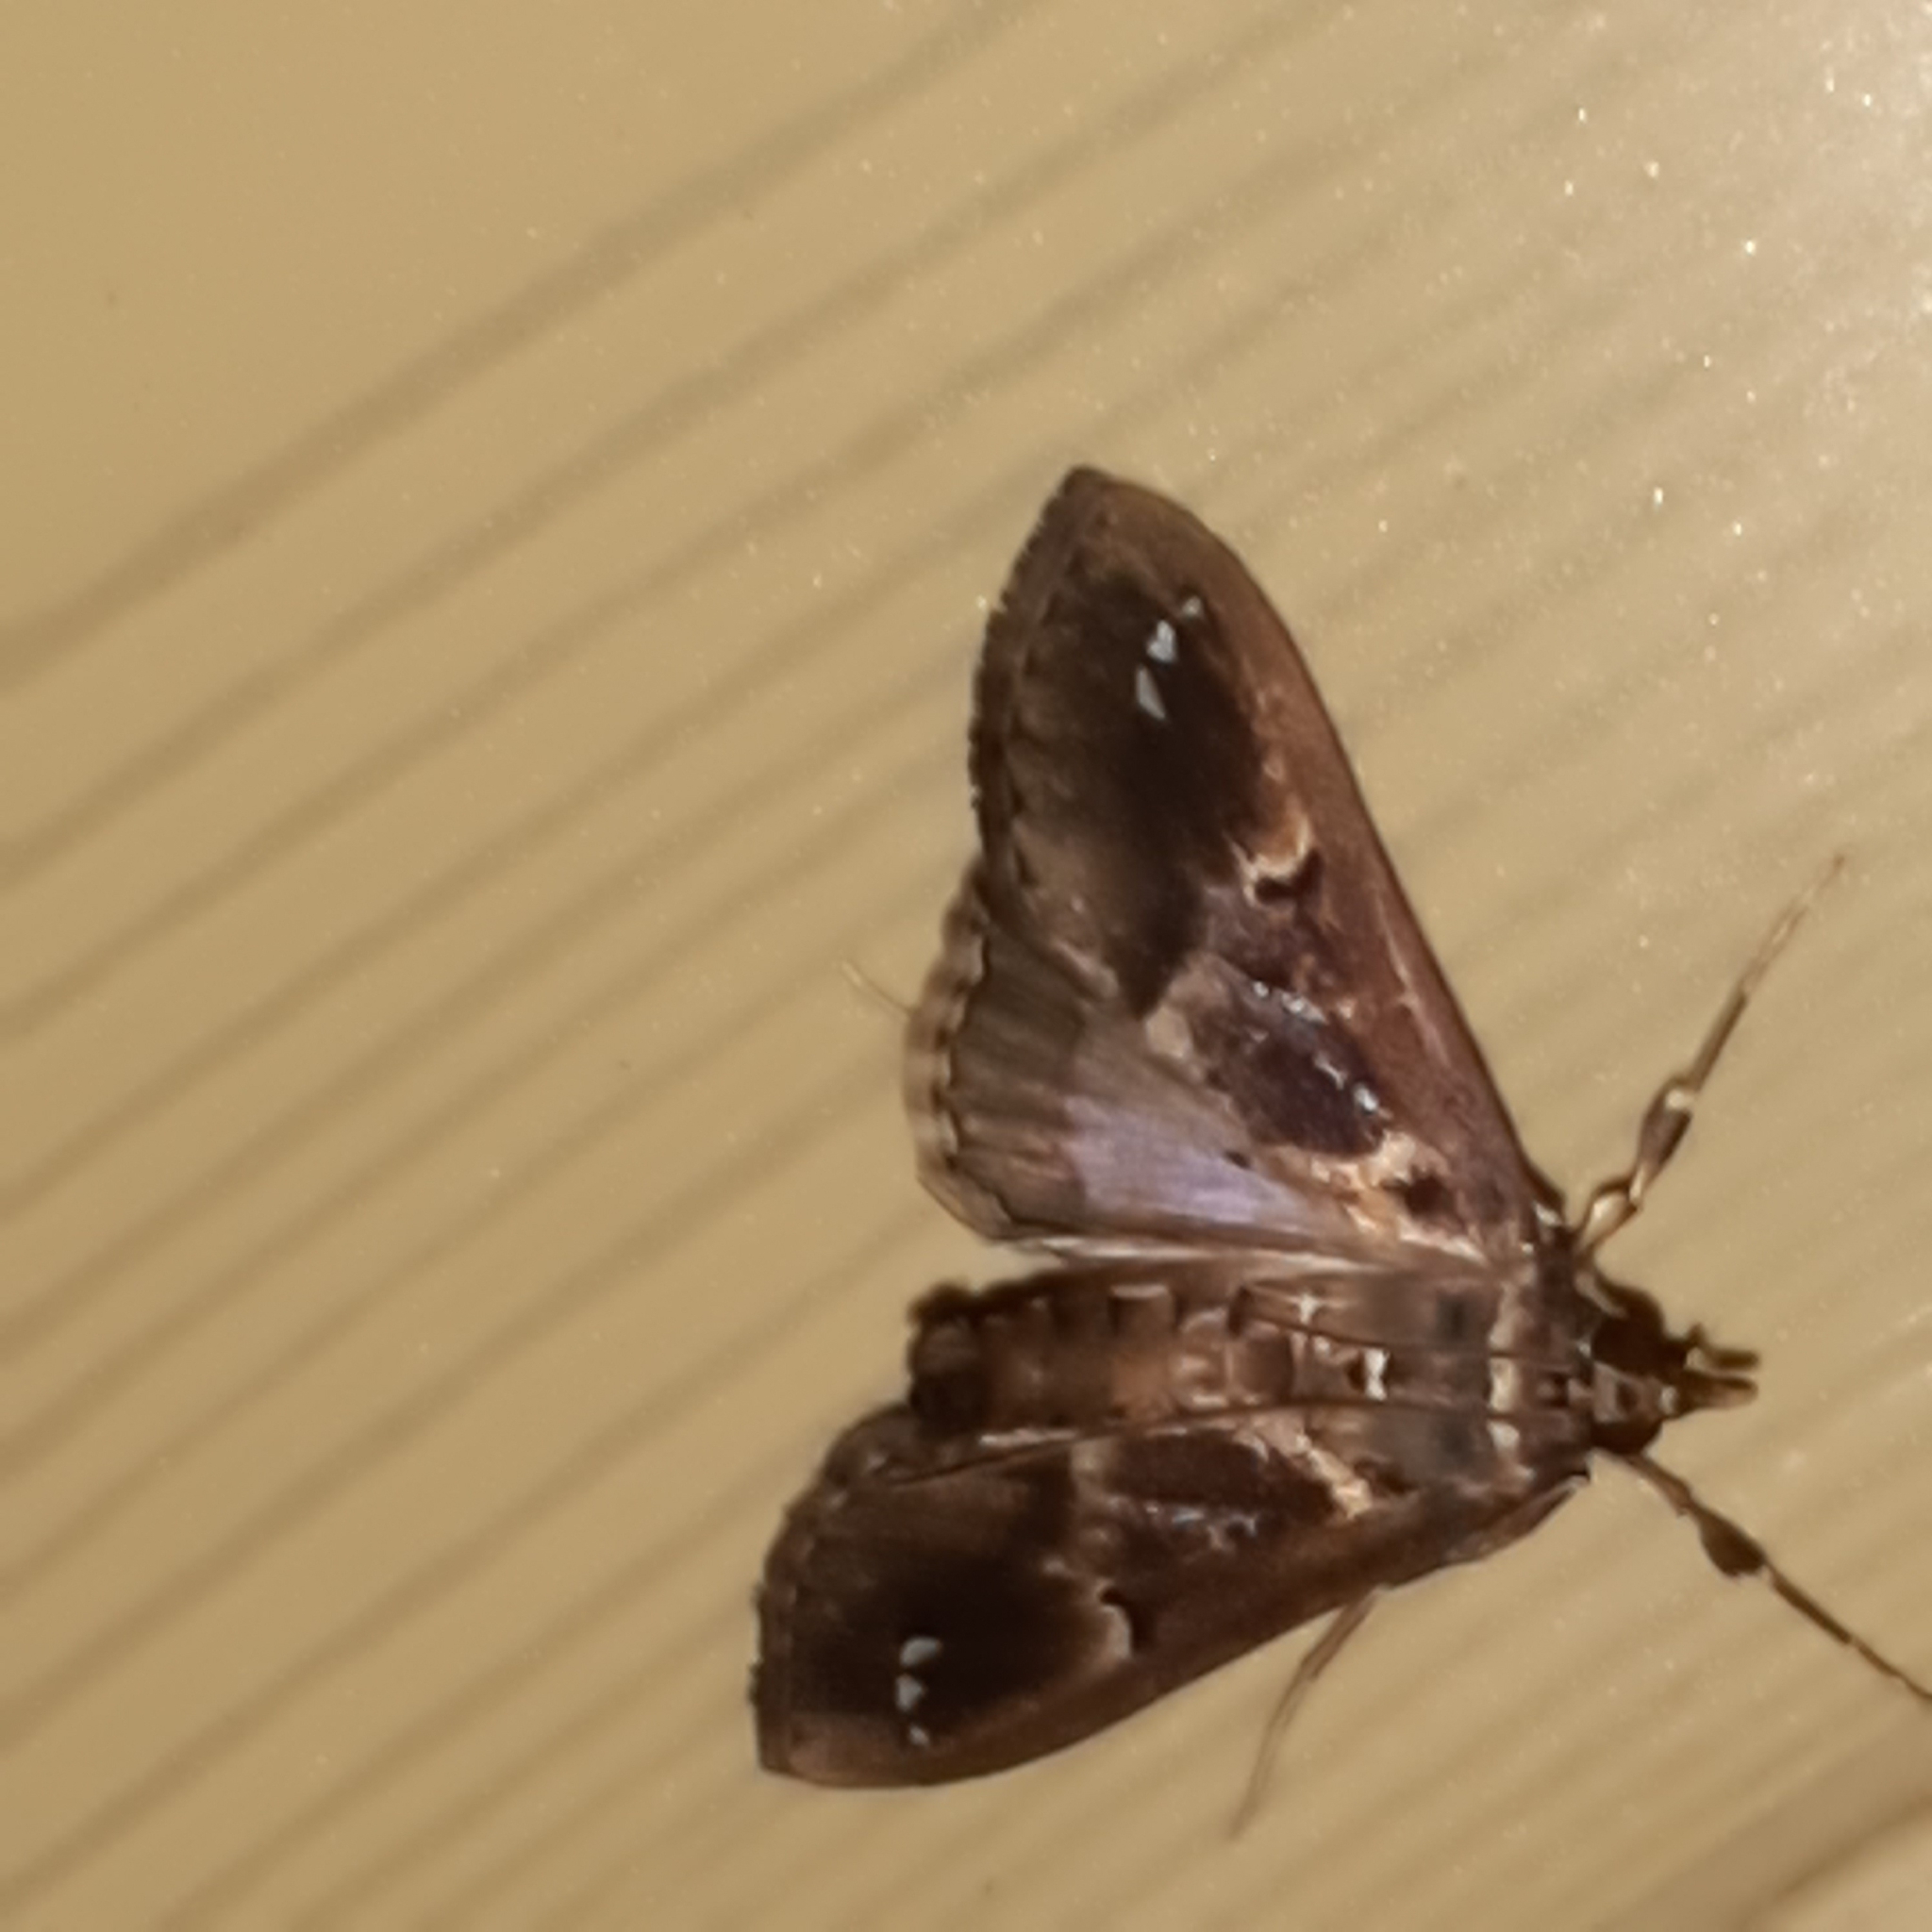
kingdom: Animalia
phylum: Arthropoda
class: Insecta
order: Lepidoptera
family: Crambidae
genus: Diaphania
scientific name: Diaphania costaricalis
